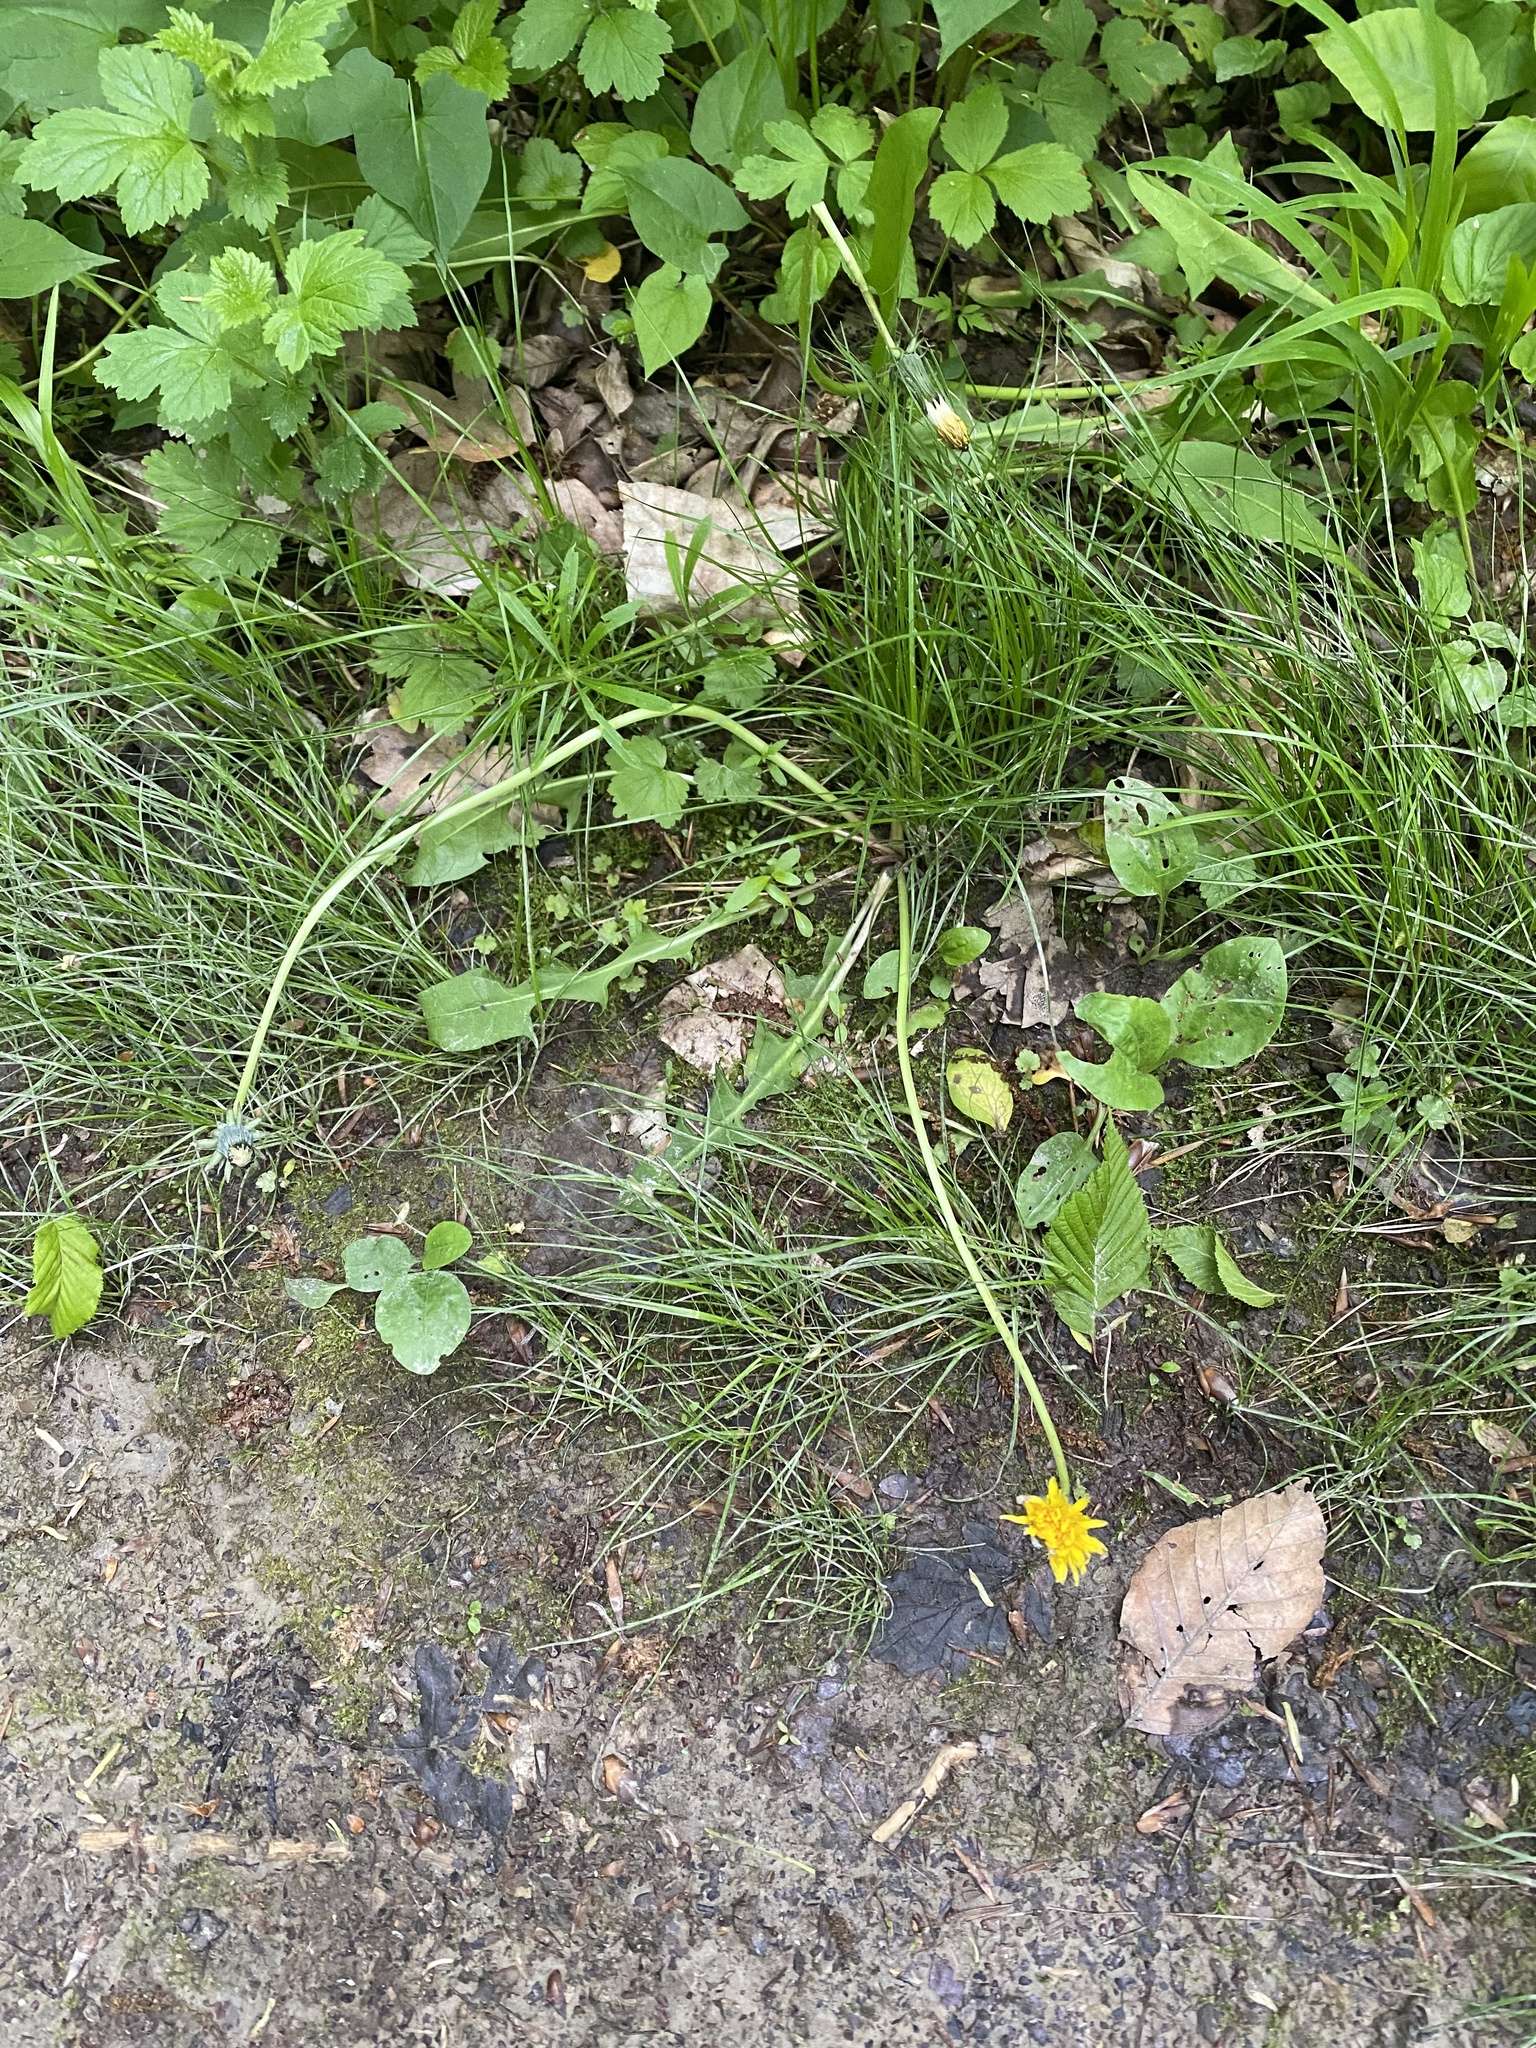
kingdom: Plantae
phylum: Tracheophyta
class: Magnoliopsida
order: Asterales
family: Asteraceae
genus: Taraxacum
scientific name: Taraxacum officinale
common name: Common dandelion
